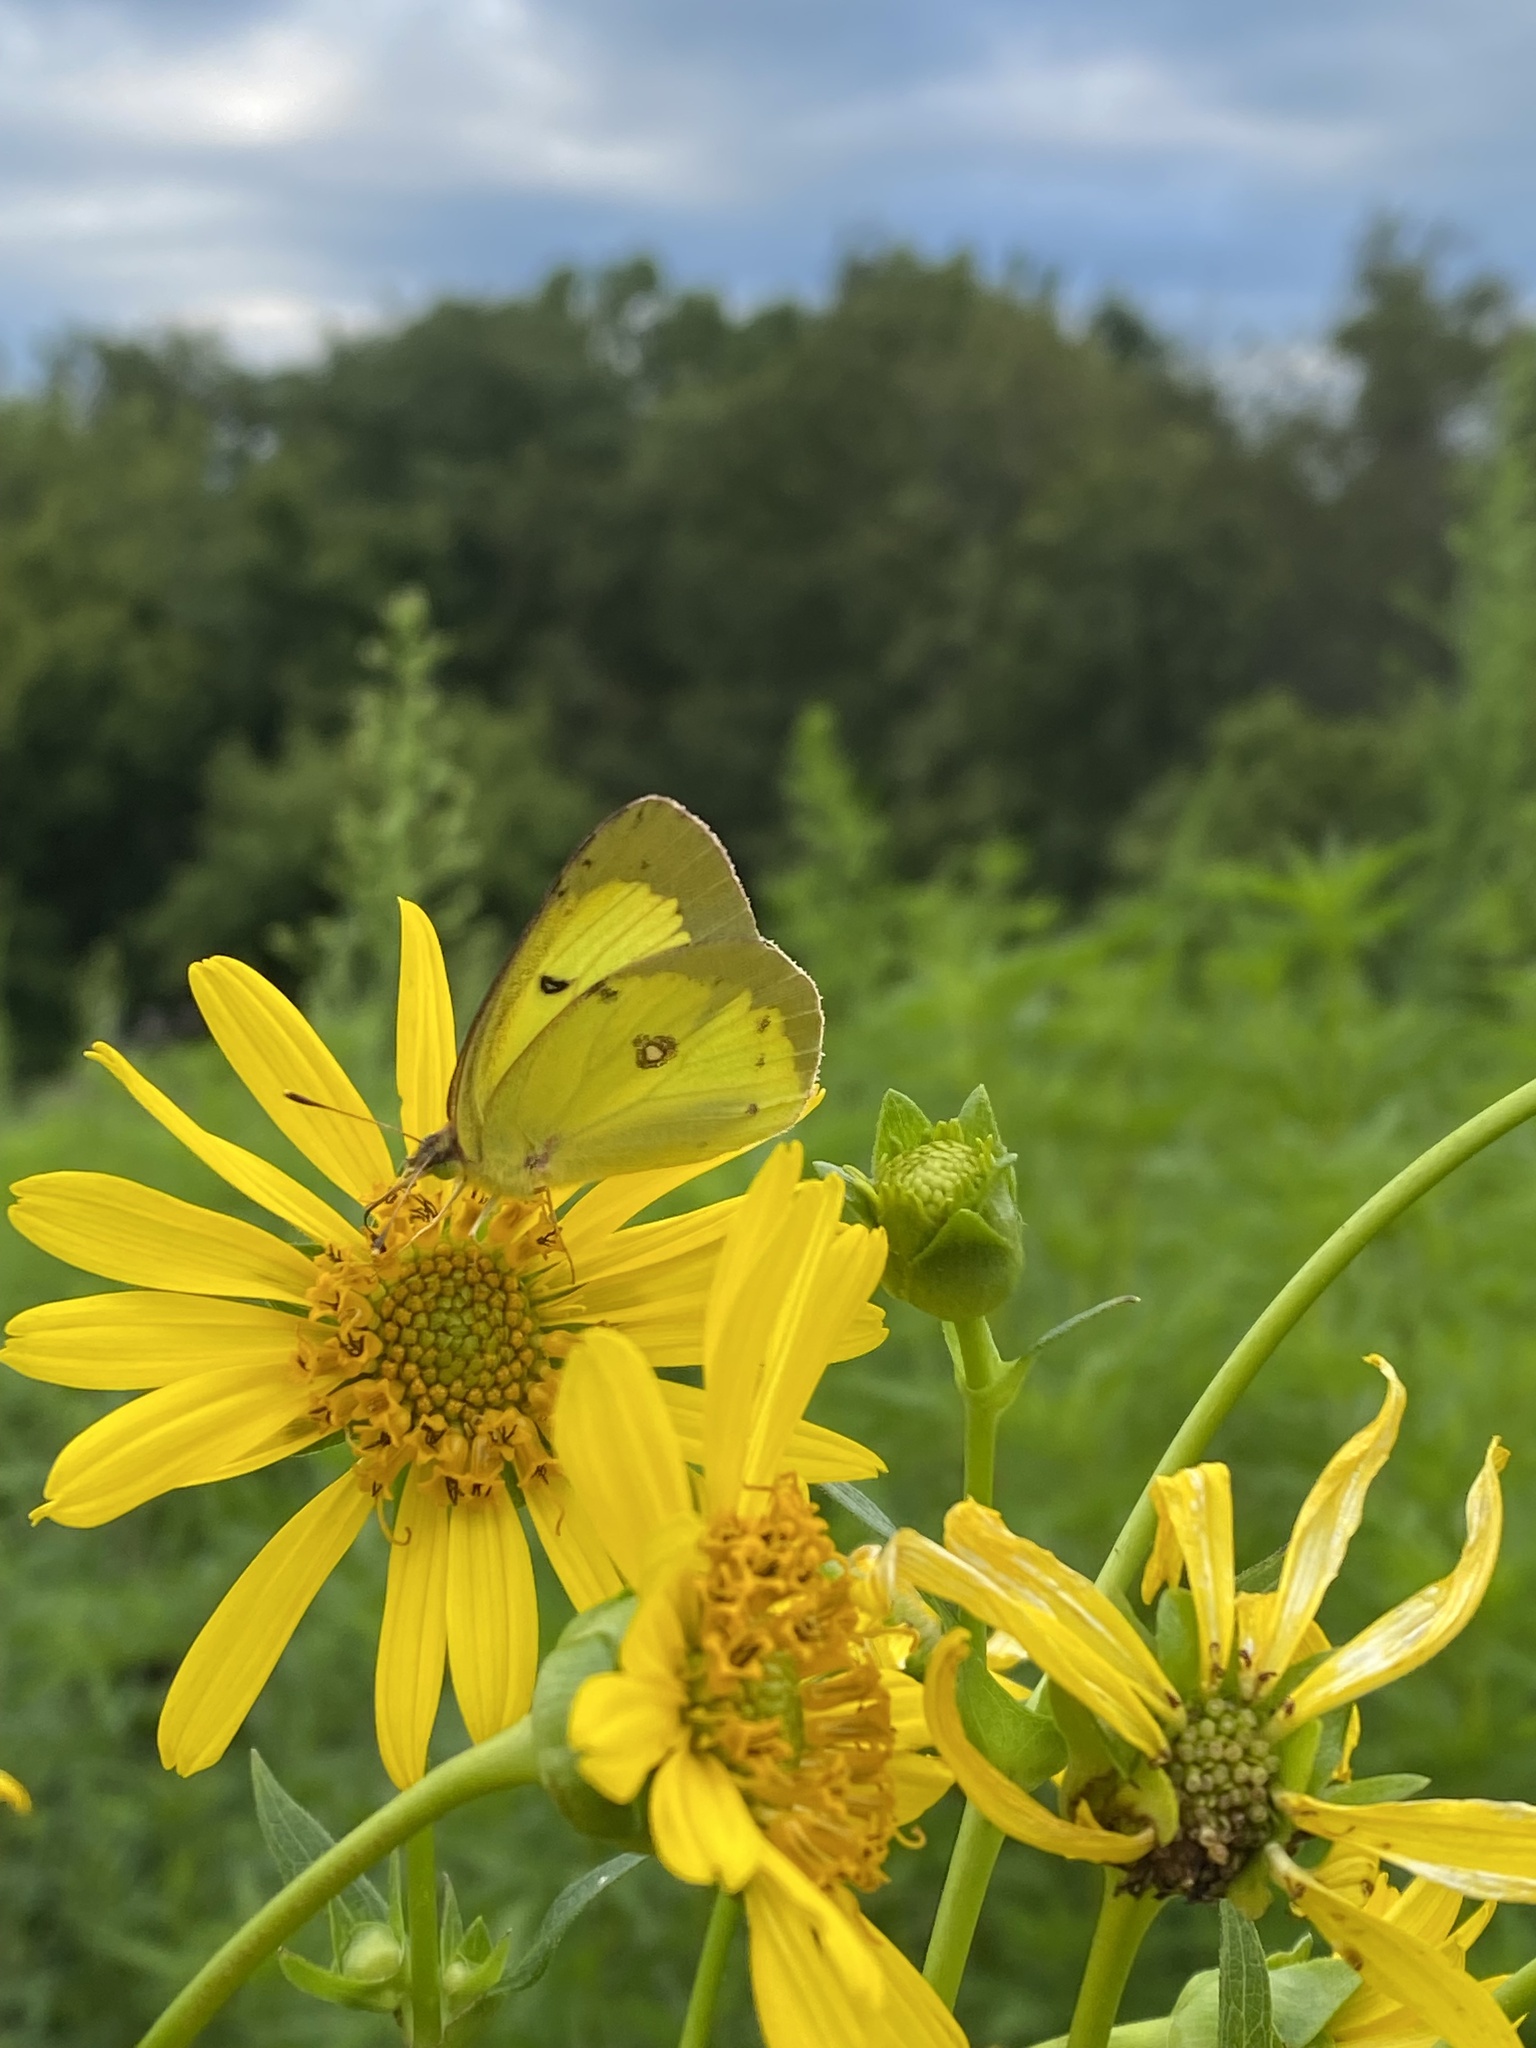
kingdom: Animalia
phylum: Arthropoda
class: Insecta
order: Lepidoptera
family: Pieridae
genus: Colias
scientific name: Colias philodice
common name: Clouded sulphur
